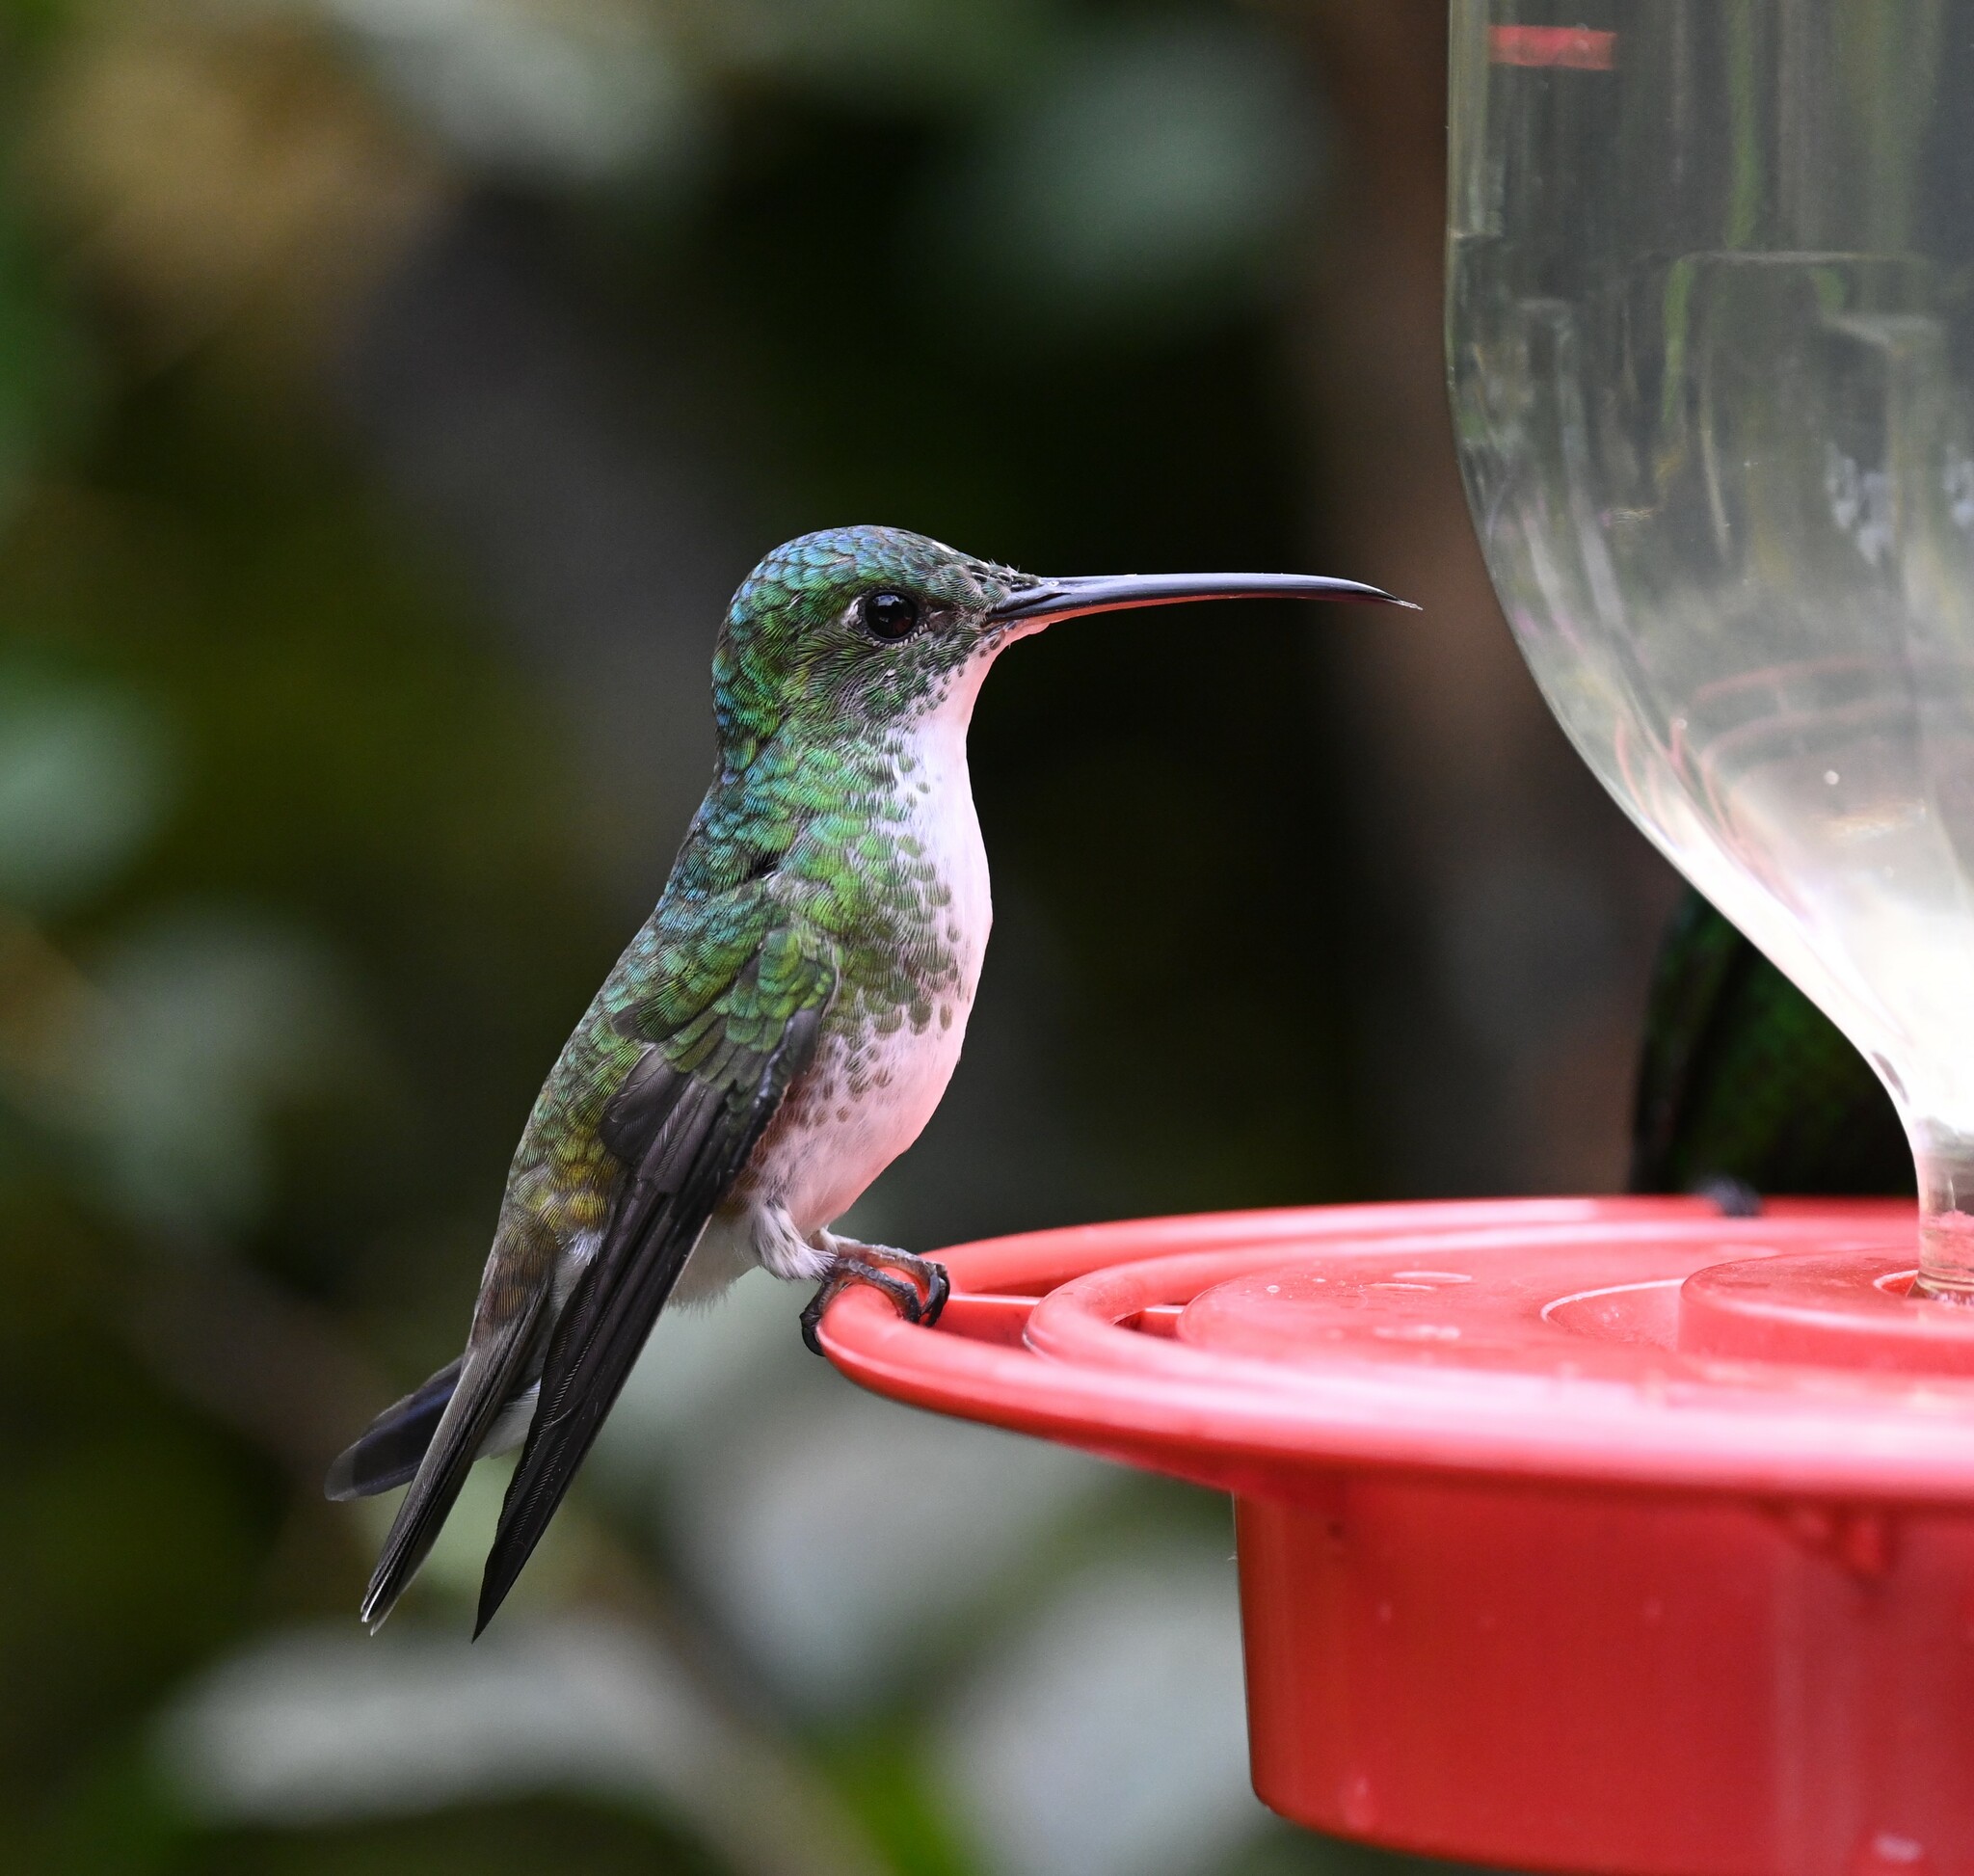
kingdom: Animalia
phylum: Chordata
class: Aves
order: Apodiformes
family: Trochilidae
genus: Uranomitra
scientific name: Uranomitra franciae
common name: Andean emerald
